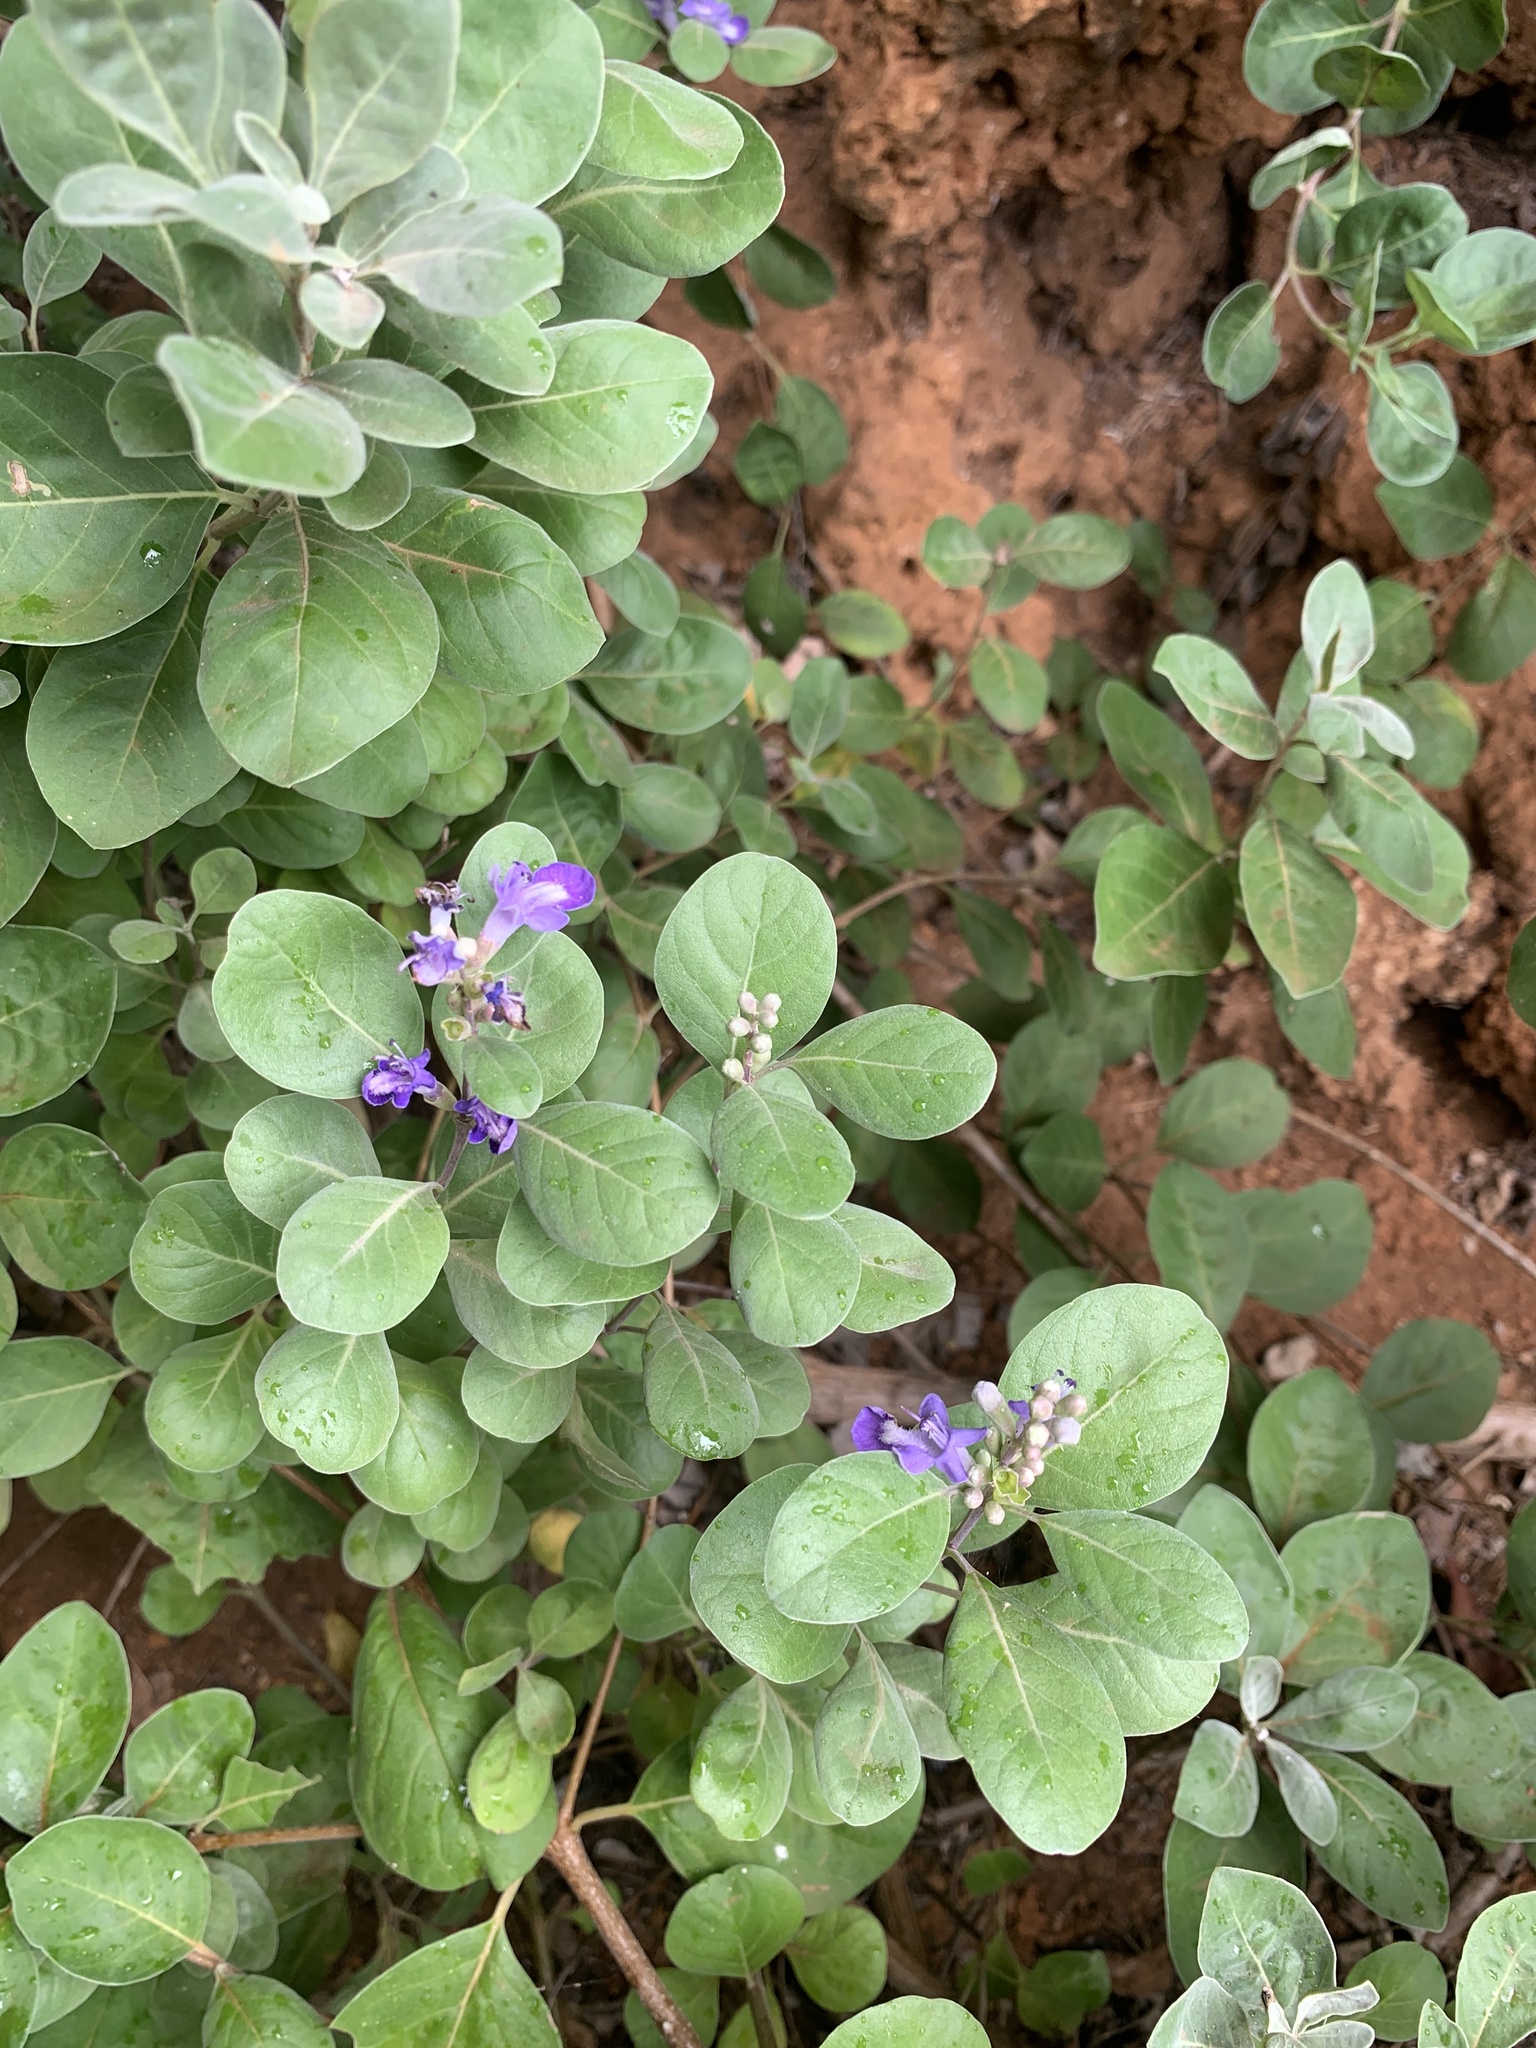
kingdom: Plantae
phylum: Tracheophyta
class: Magnoliopsida
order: Lamiales
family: Lamiaceae
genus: Vitex
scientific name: Vitex rotundifolia
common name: Beach vitex
